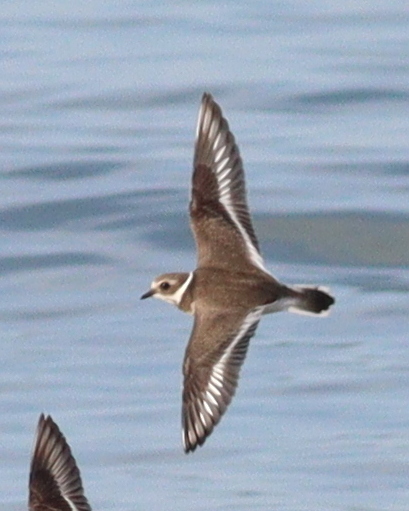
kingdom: Animalia
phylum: Chordata
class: Aves
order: Charadriiformes
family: Charadriidae
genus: Charadrius
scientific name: Charadrius hiaticula
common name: Common ringed plover
